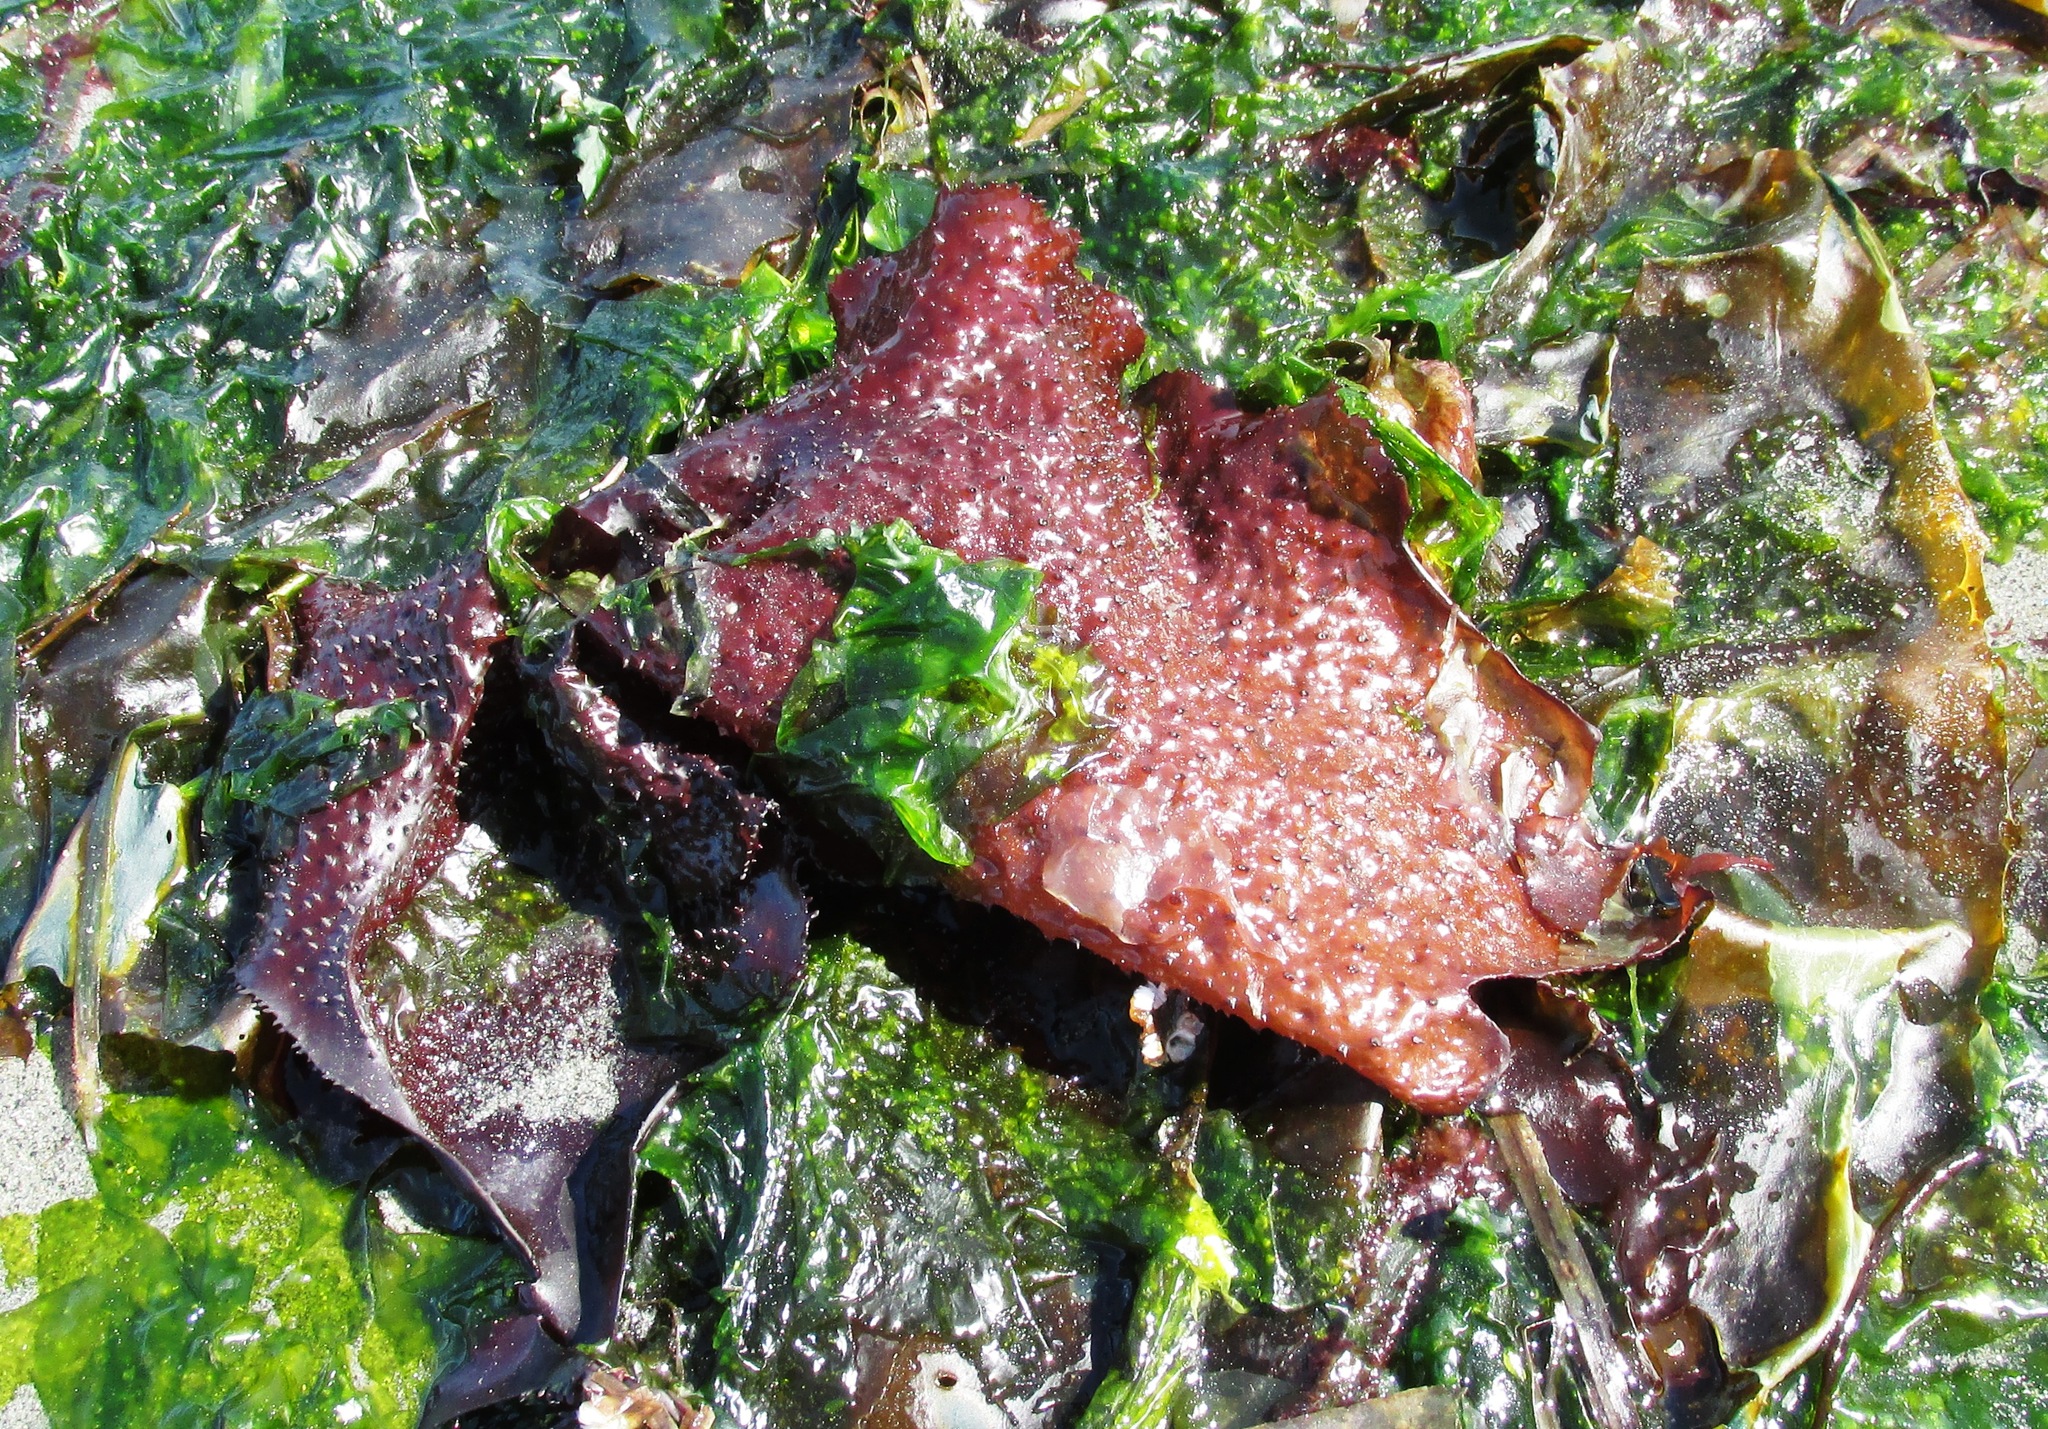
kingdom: Plantae
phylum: Rhodophyta
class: Florideophyceae
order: Gigartinales
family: Gigartinaceae
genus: Chondracanthus
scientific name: Chondracanthus exasperatus
